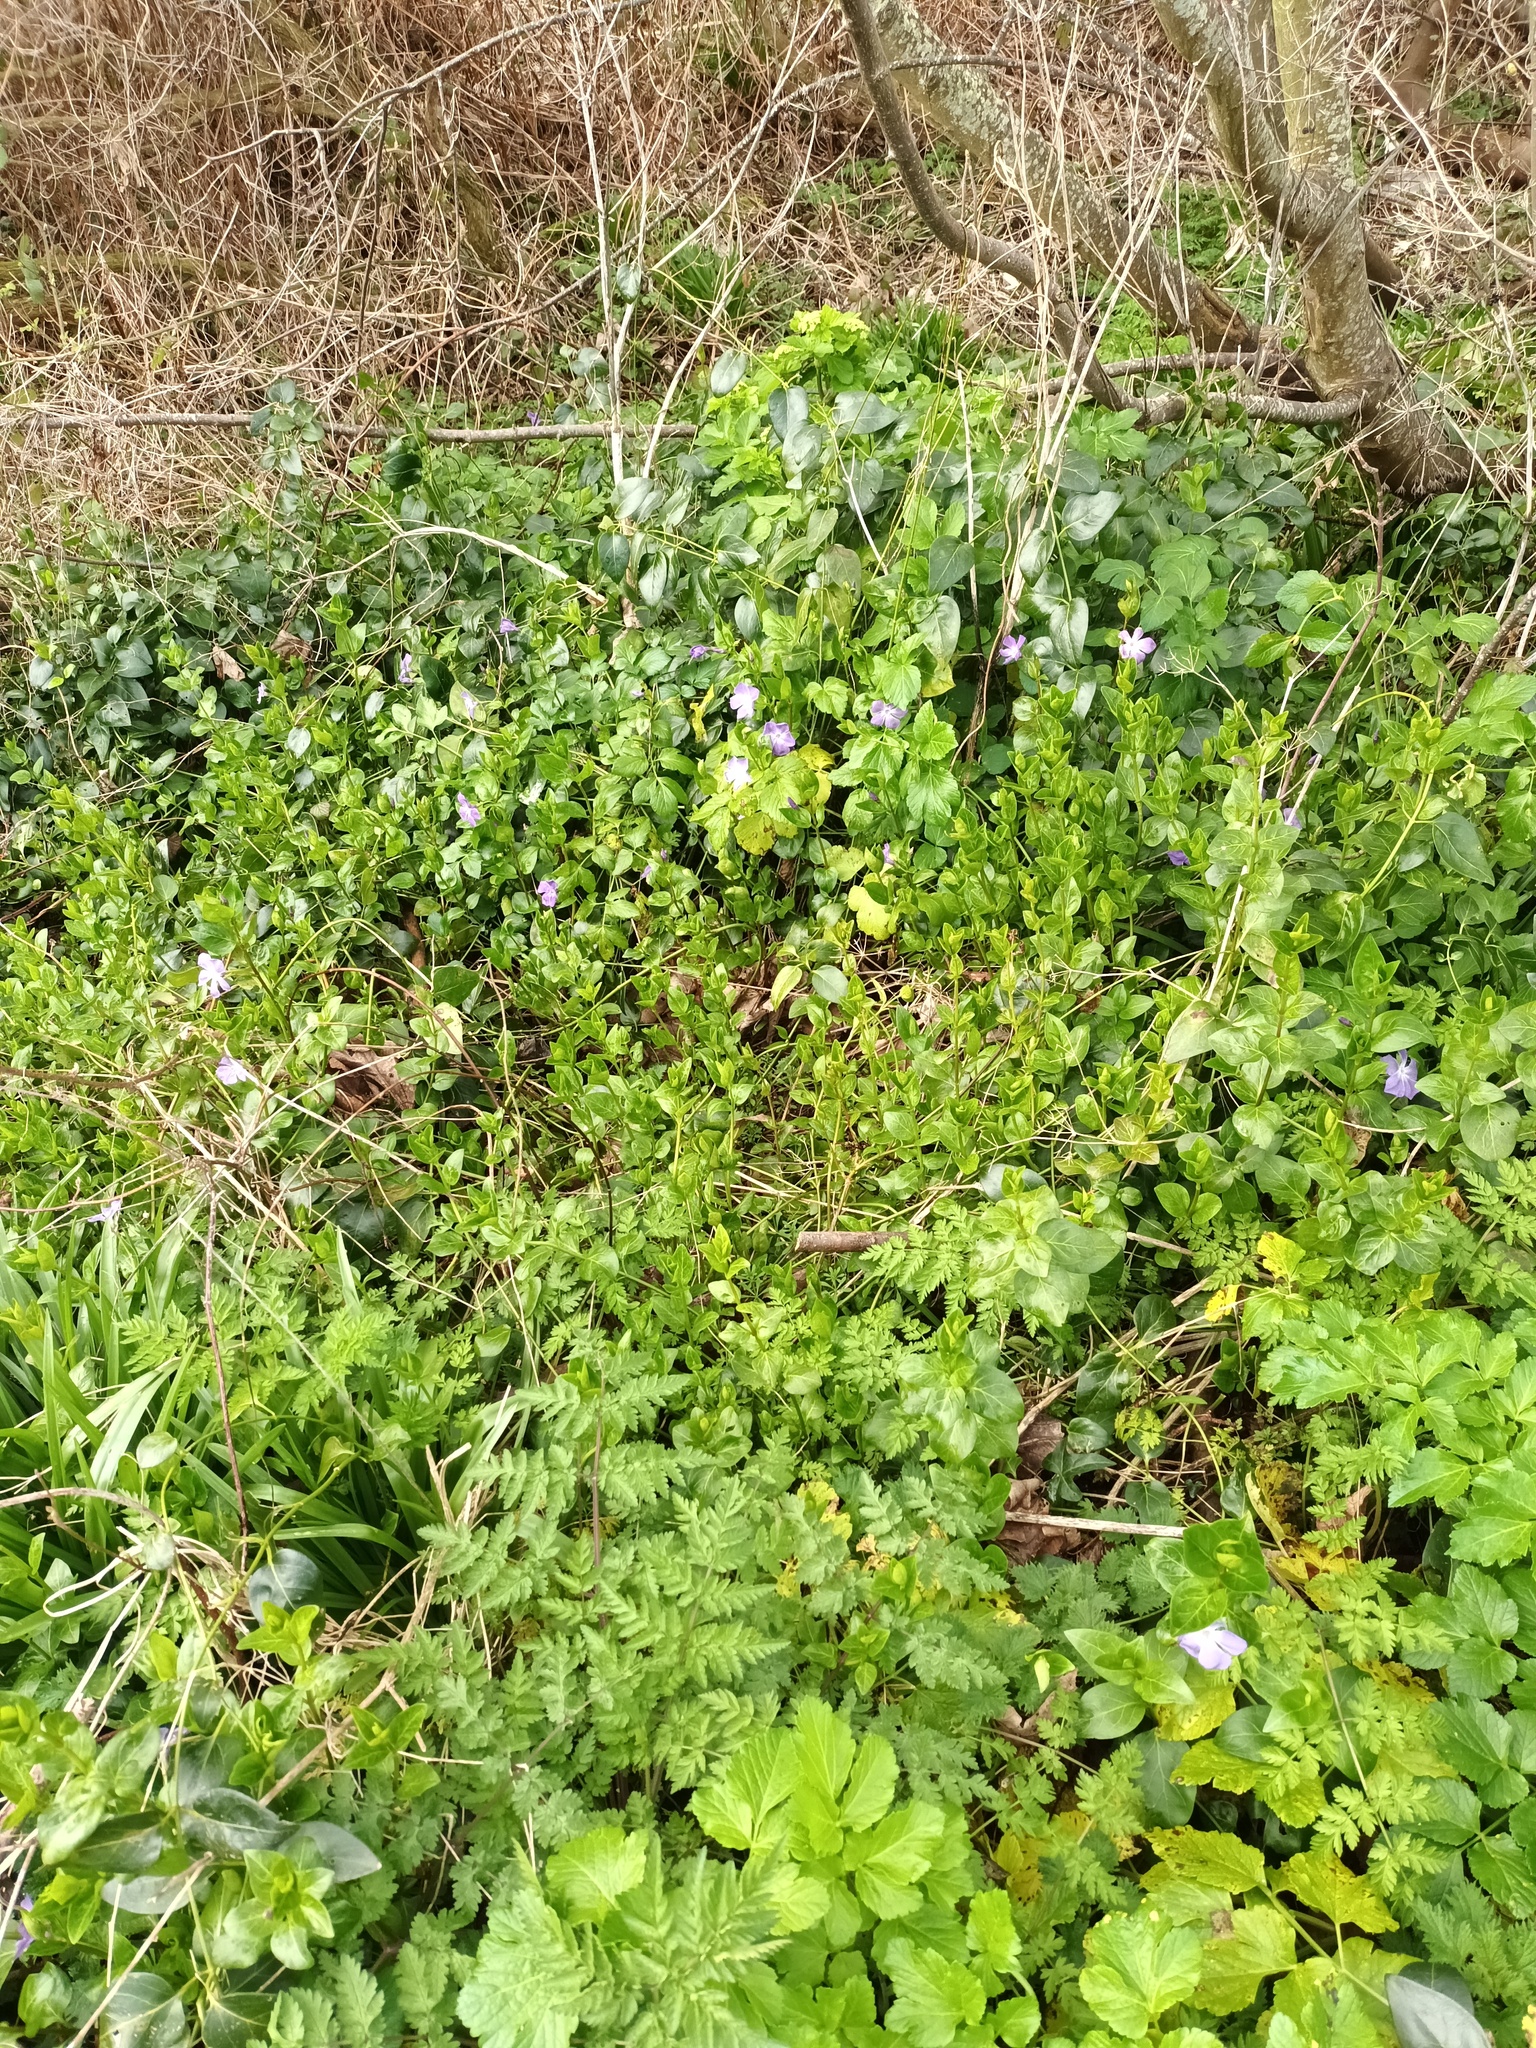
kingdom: Plantae
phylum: Tracheophyta
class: Magnoliopsida
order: Gentianales
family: Apocynaceae
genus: Vinca
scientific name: Vinca major
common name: Greater periwinkle
